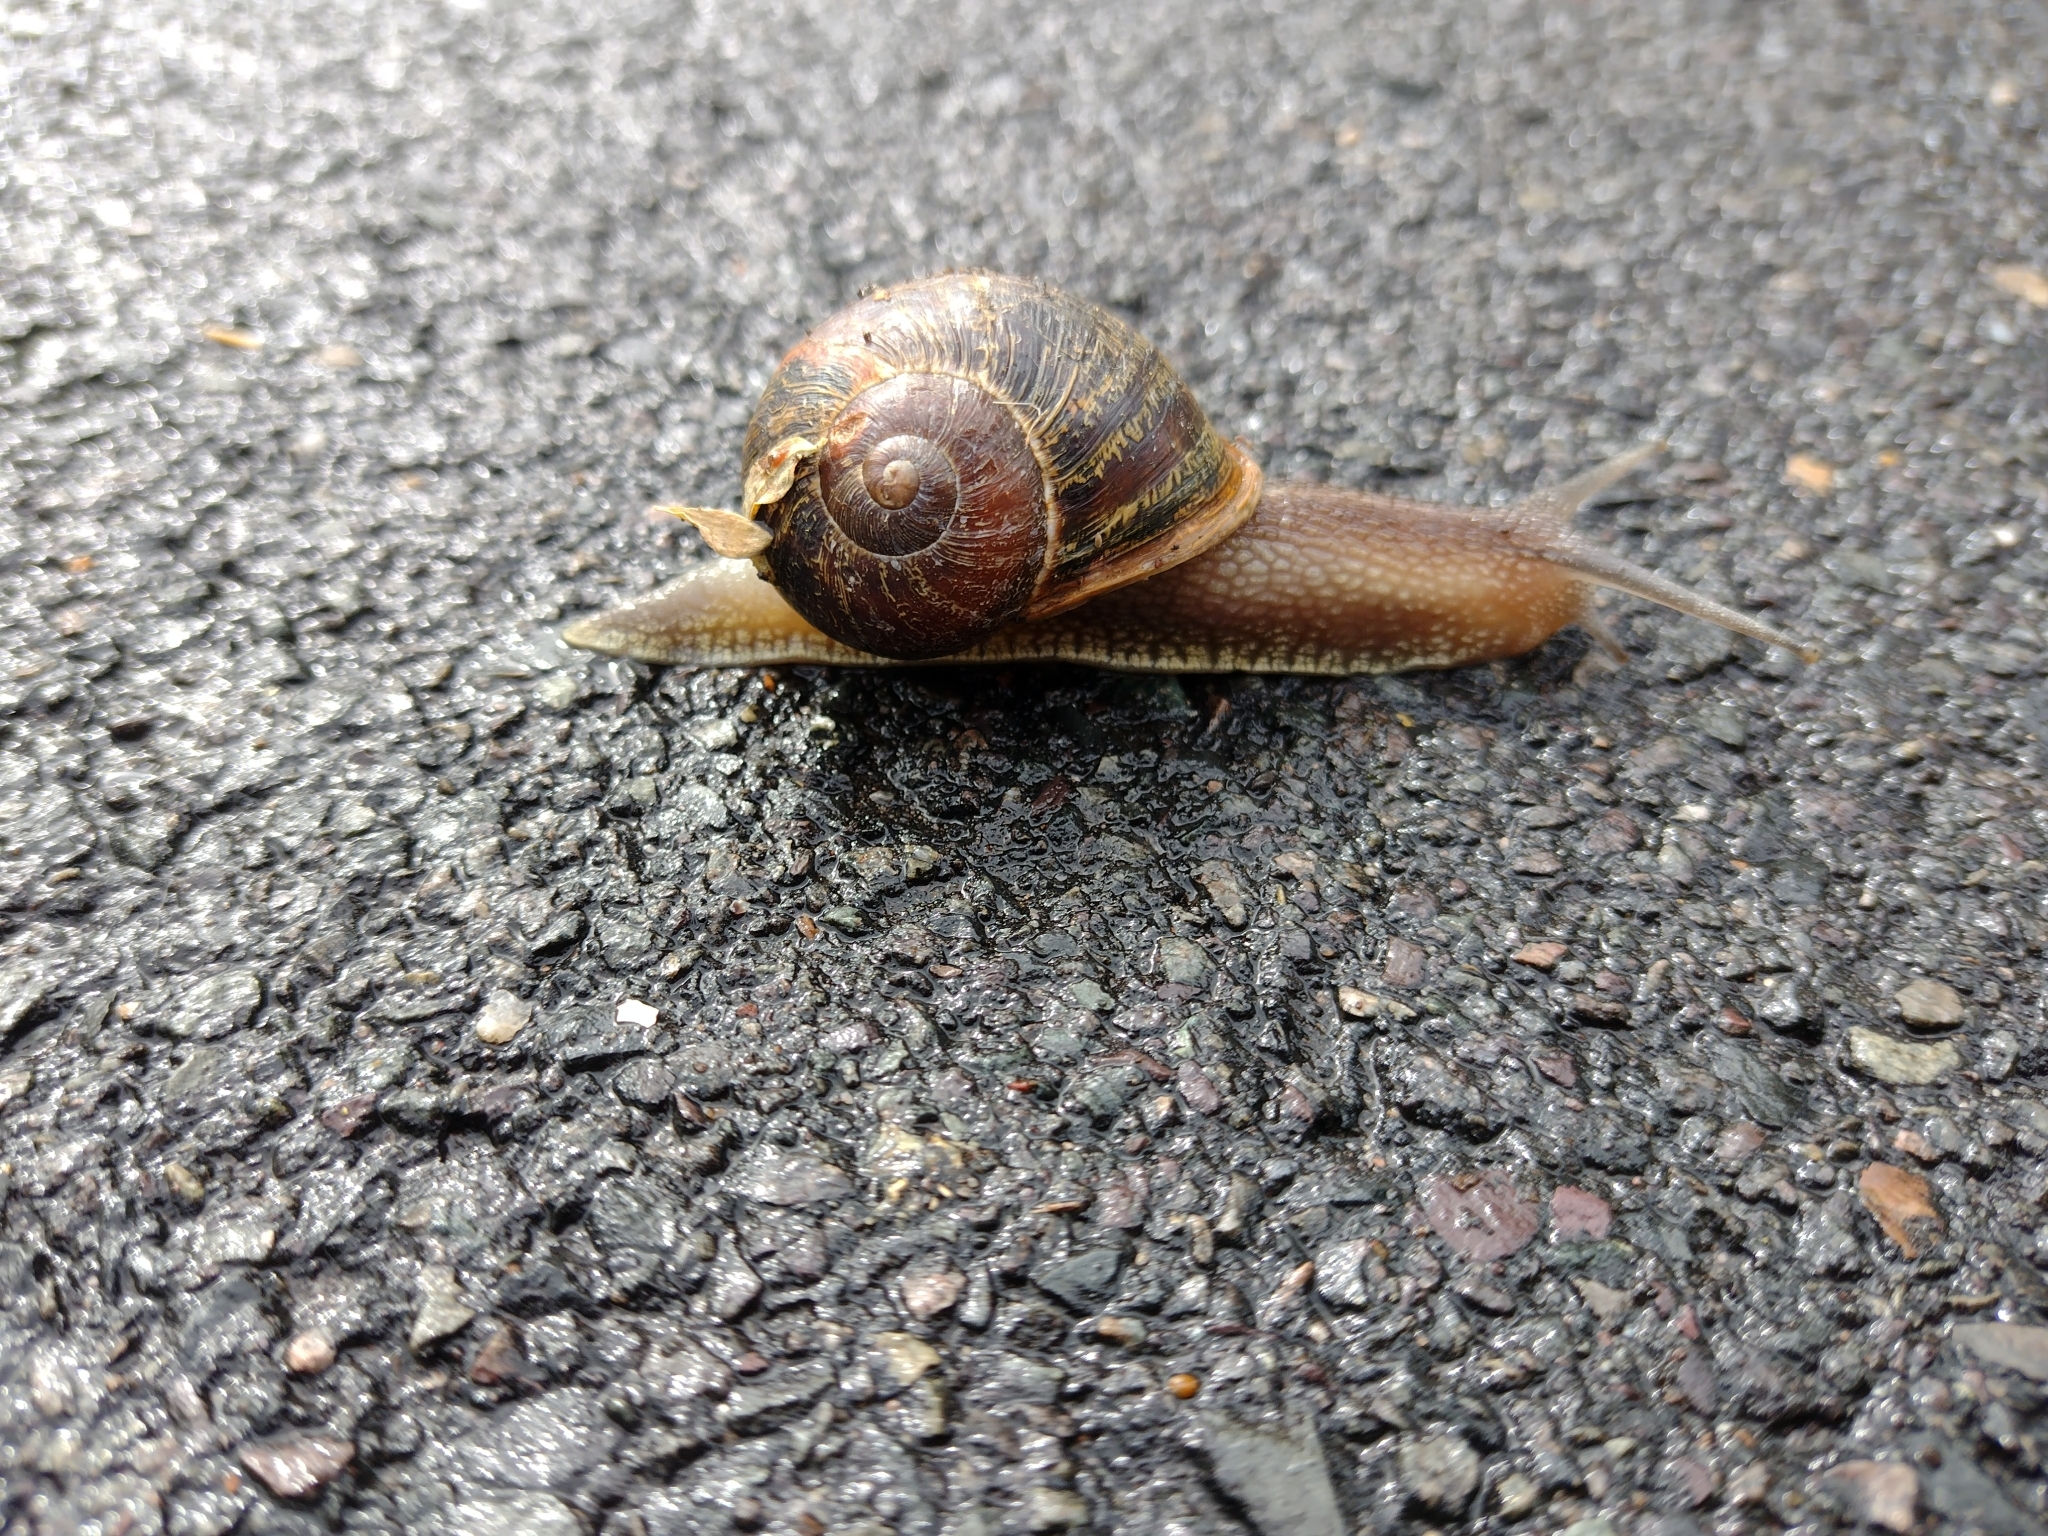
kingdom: Animalia
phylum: Mollusca
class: Gastropoda
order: Stylommatophora
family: Helicidae
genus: Cornu
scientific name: Cornu aspersum
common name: Brown garden snail
